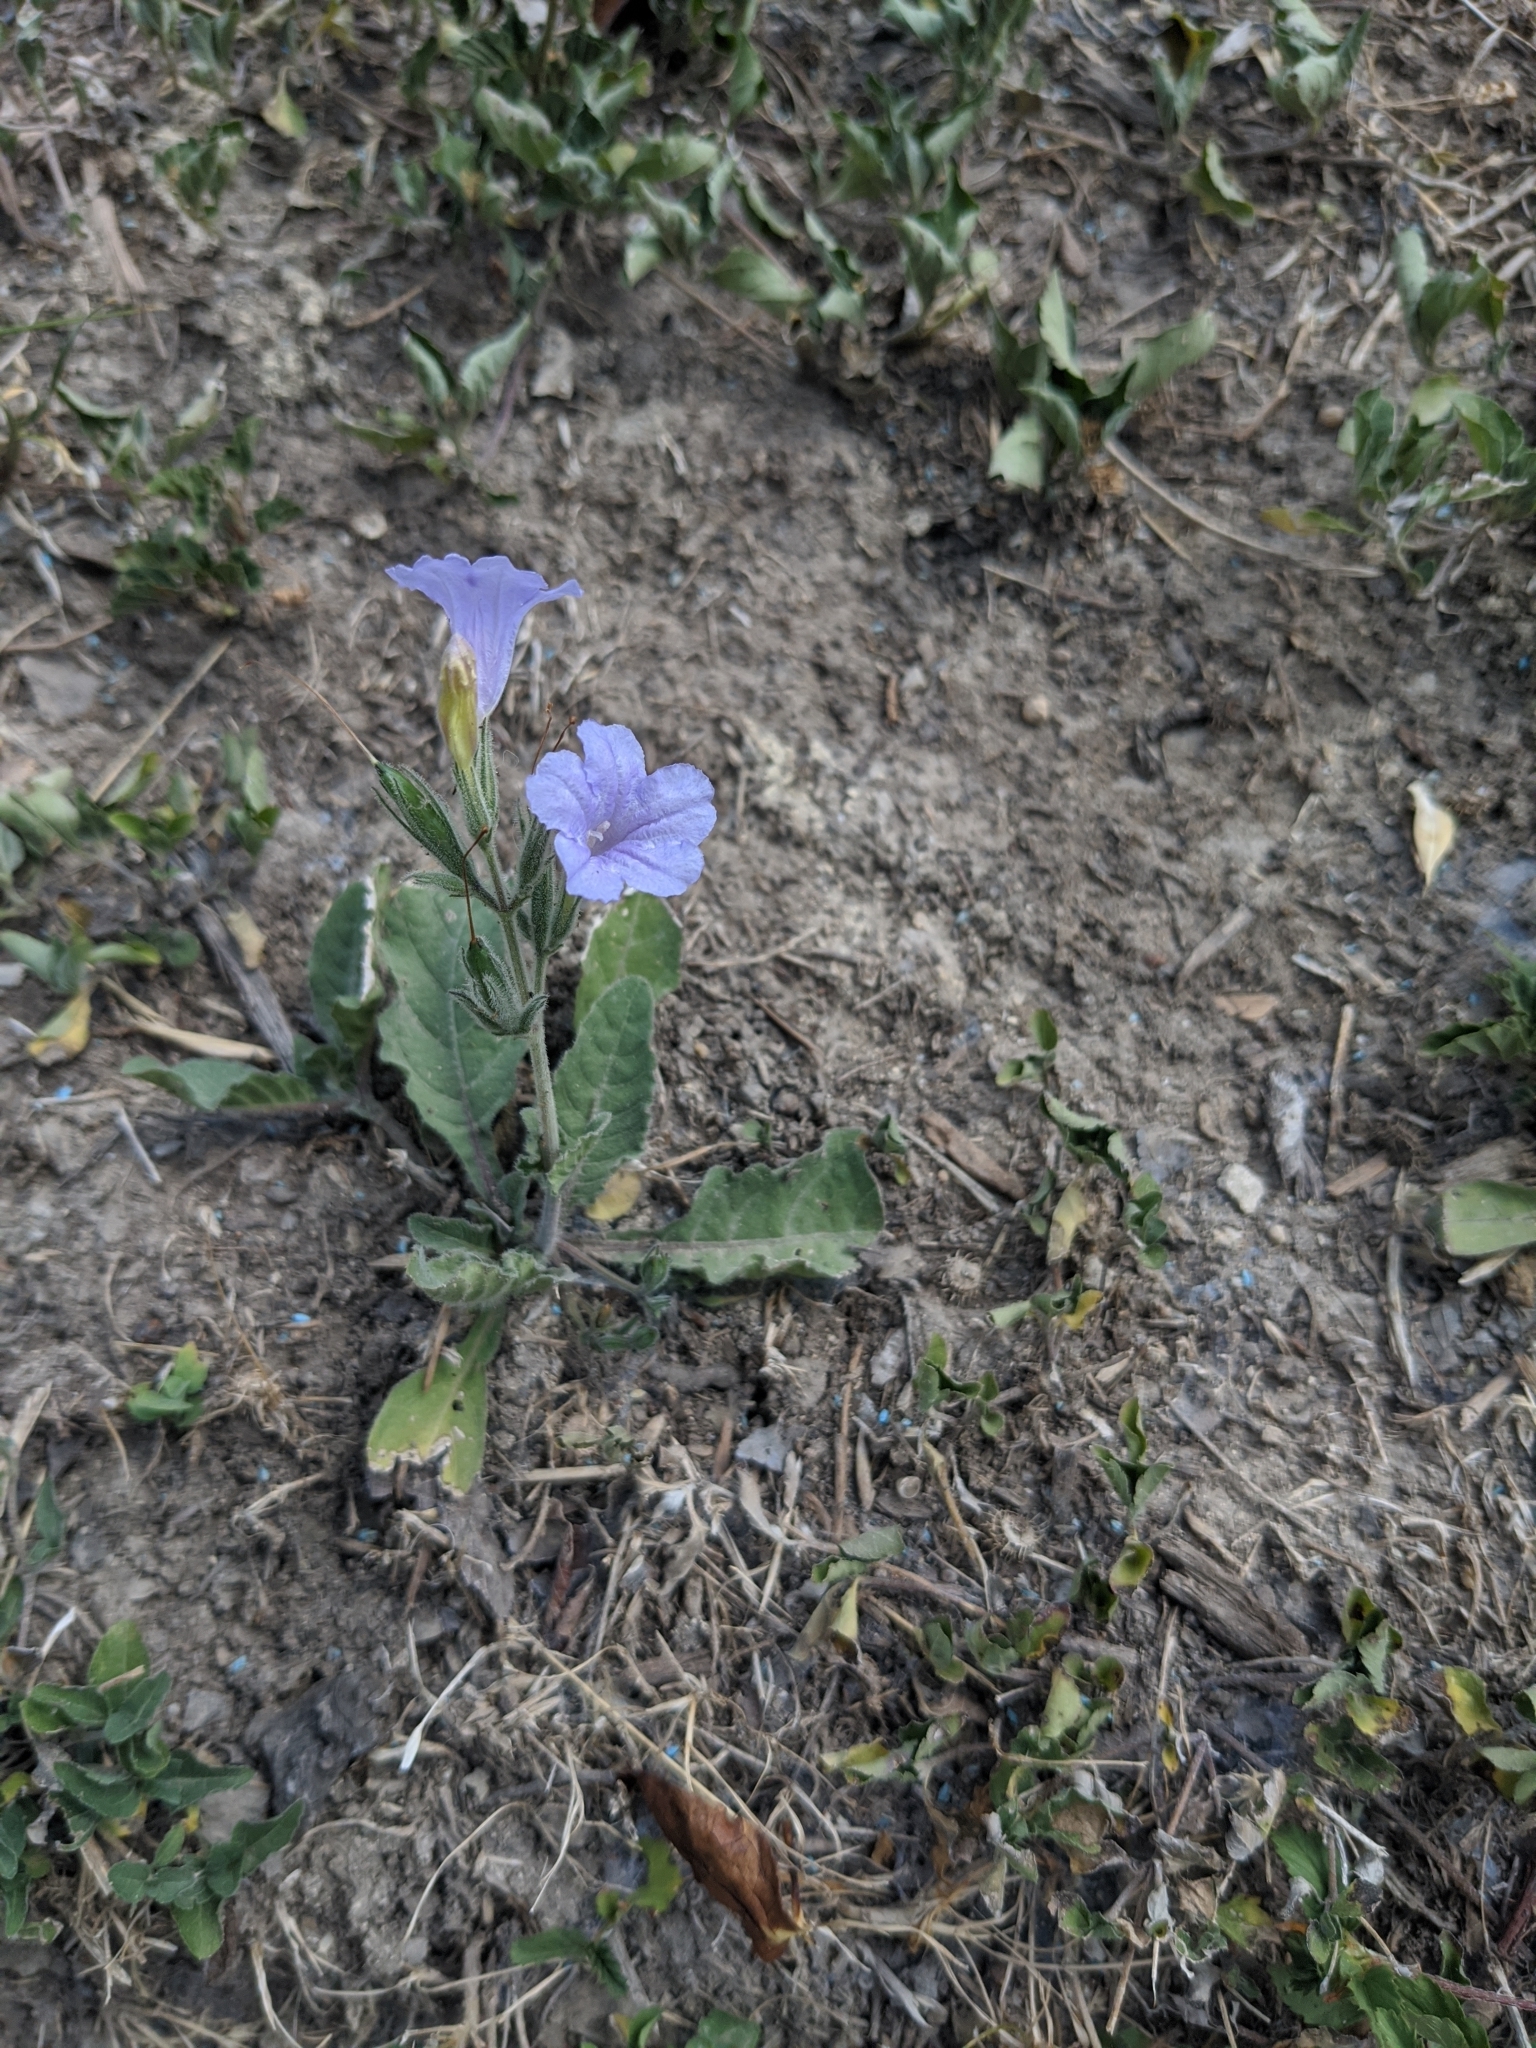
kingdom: Plantae
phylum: Tracheophyta
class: Magnoliopsida
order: Lamiales
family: Acanthaceae
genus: Ruellia
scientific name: Ruellia ciliatiflora
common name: Hairyflower wild petunia
